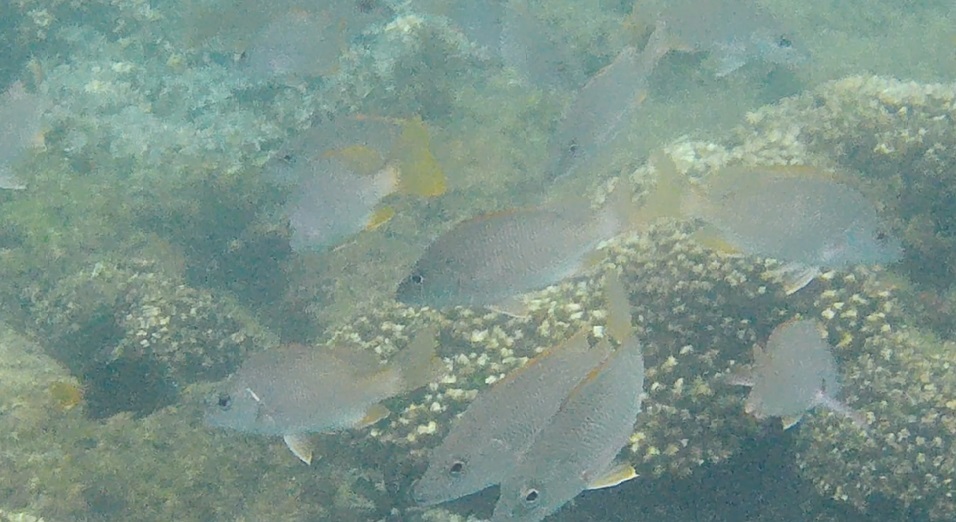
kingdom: Animalia
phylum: Chordata
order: Perciformes
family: Lutjanidae
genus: Lutjanus
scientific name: Lutjanus argentiventris
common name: Yellow snapper
